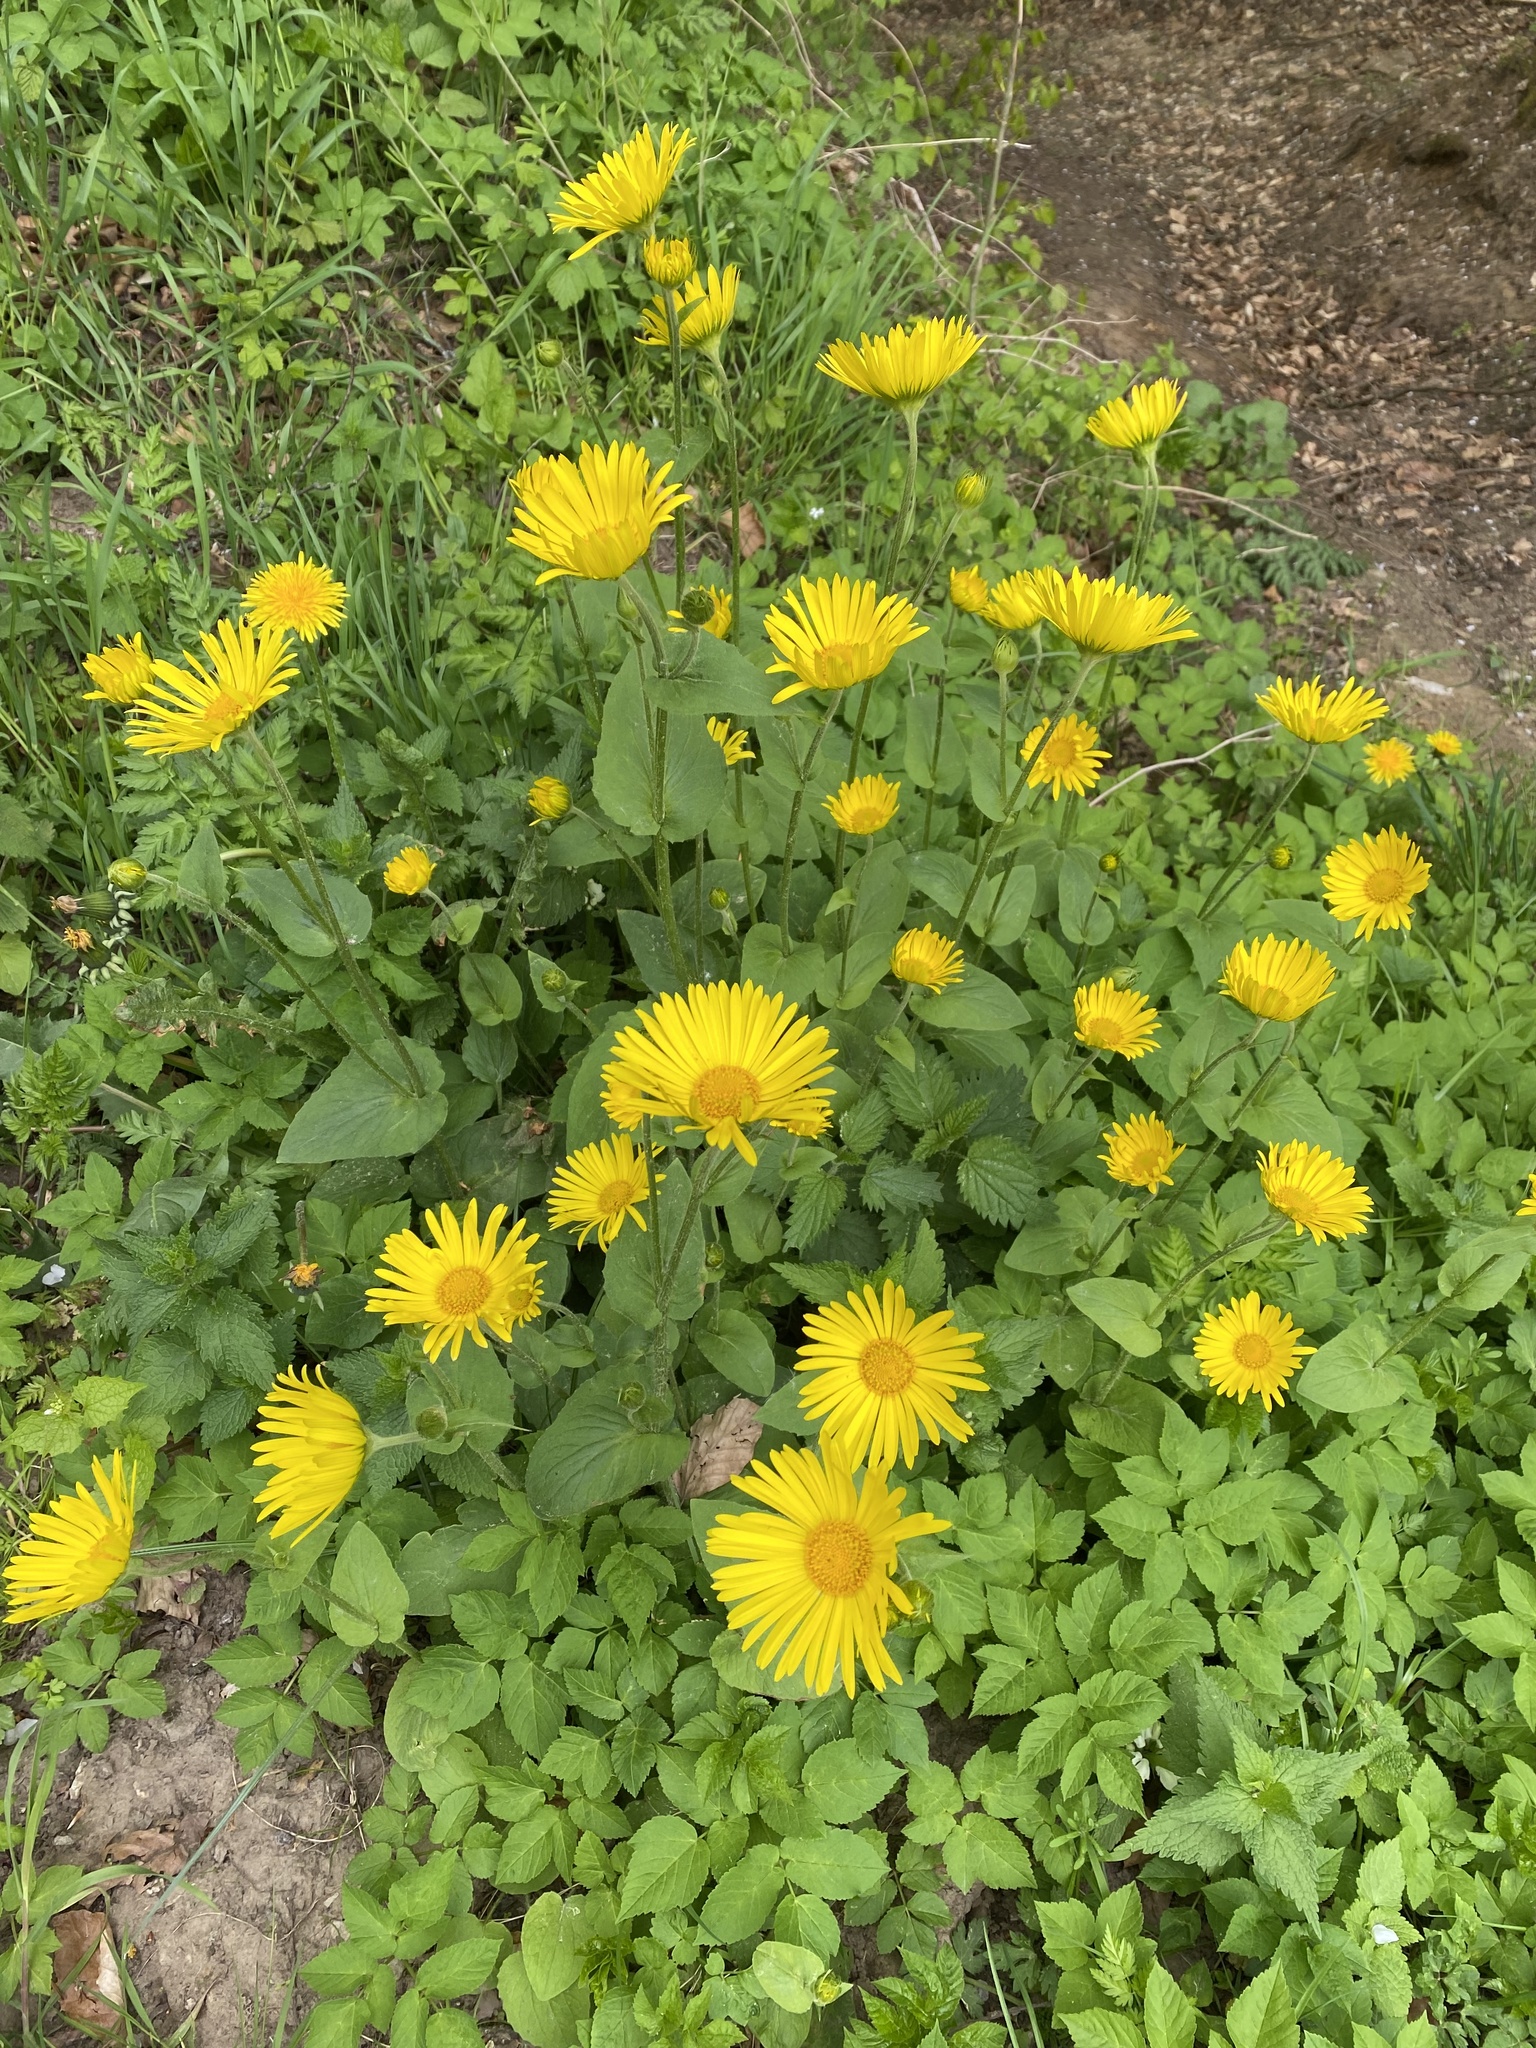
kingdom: Plantae
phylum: Tracheophyta
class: Magnoliopsida
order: Asterales
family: Asteraceae
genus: Doronicum
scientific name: Doronicum pardalianches
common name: Leopard's-bane
